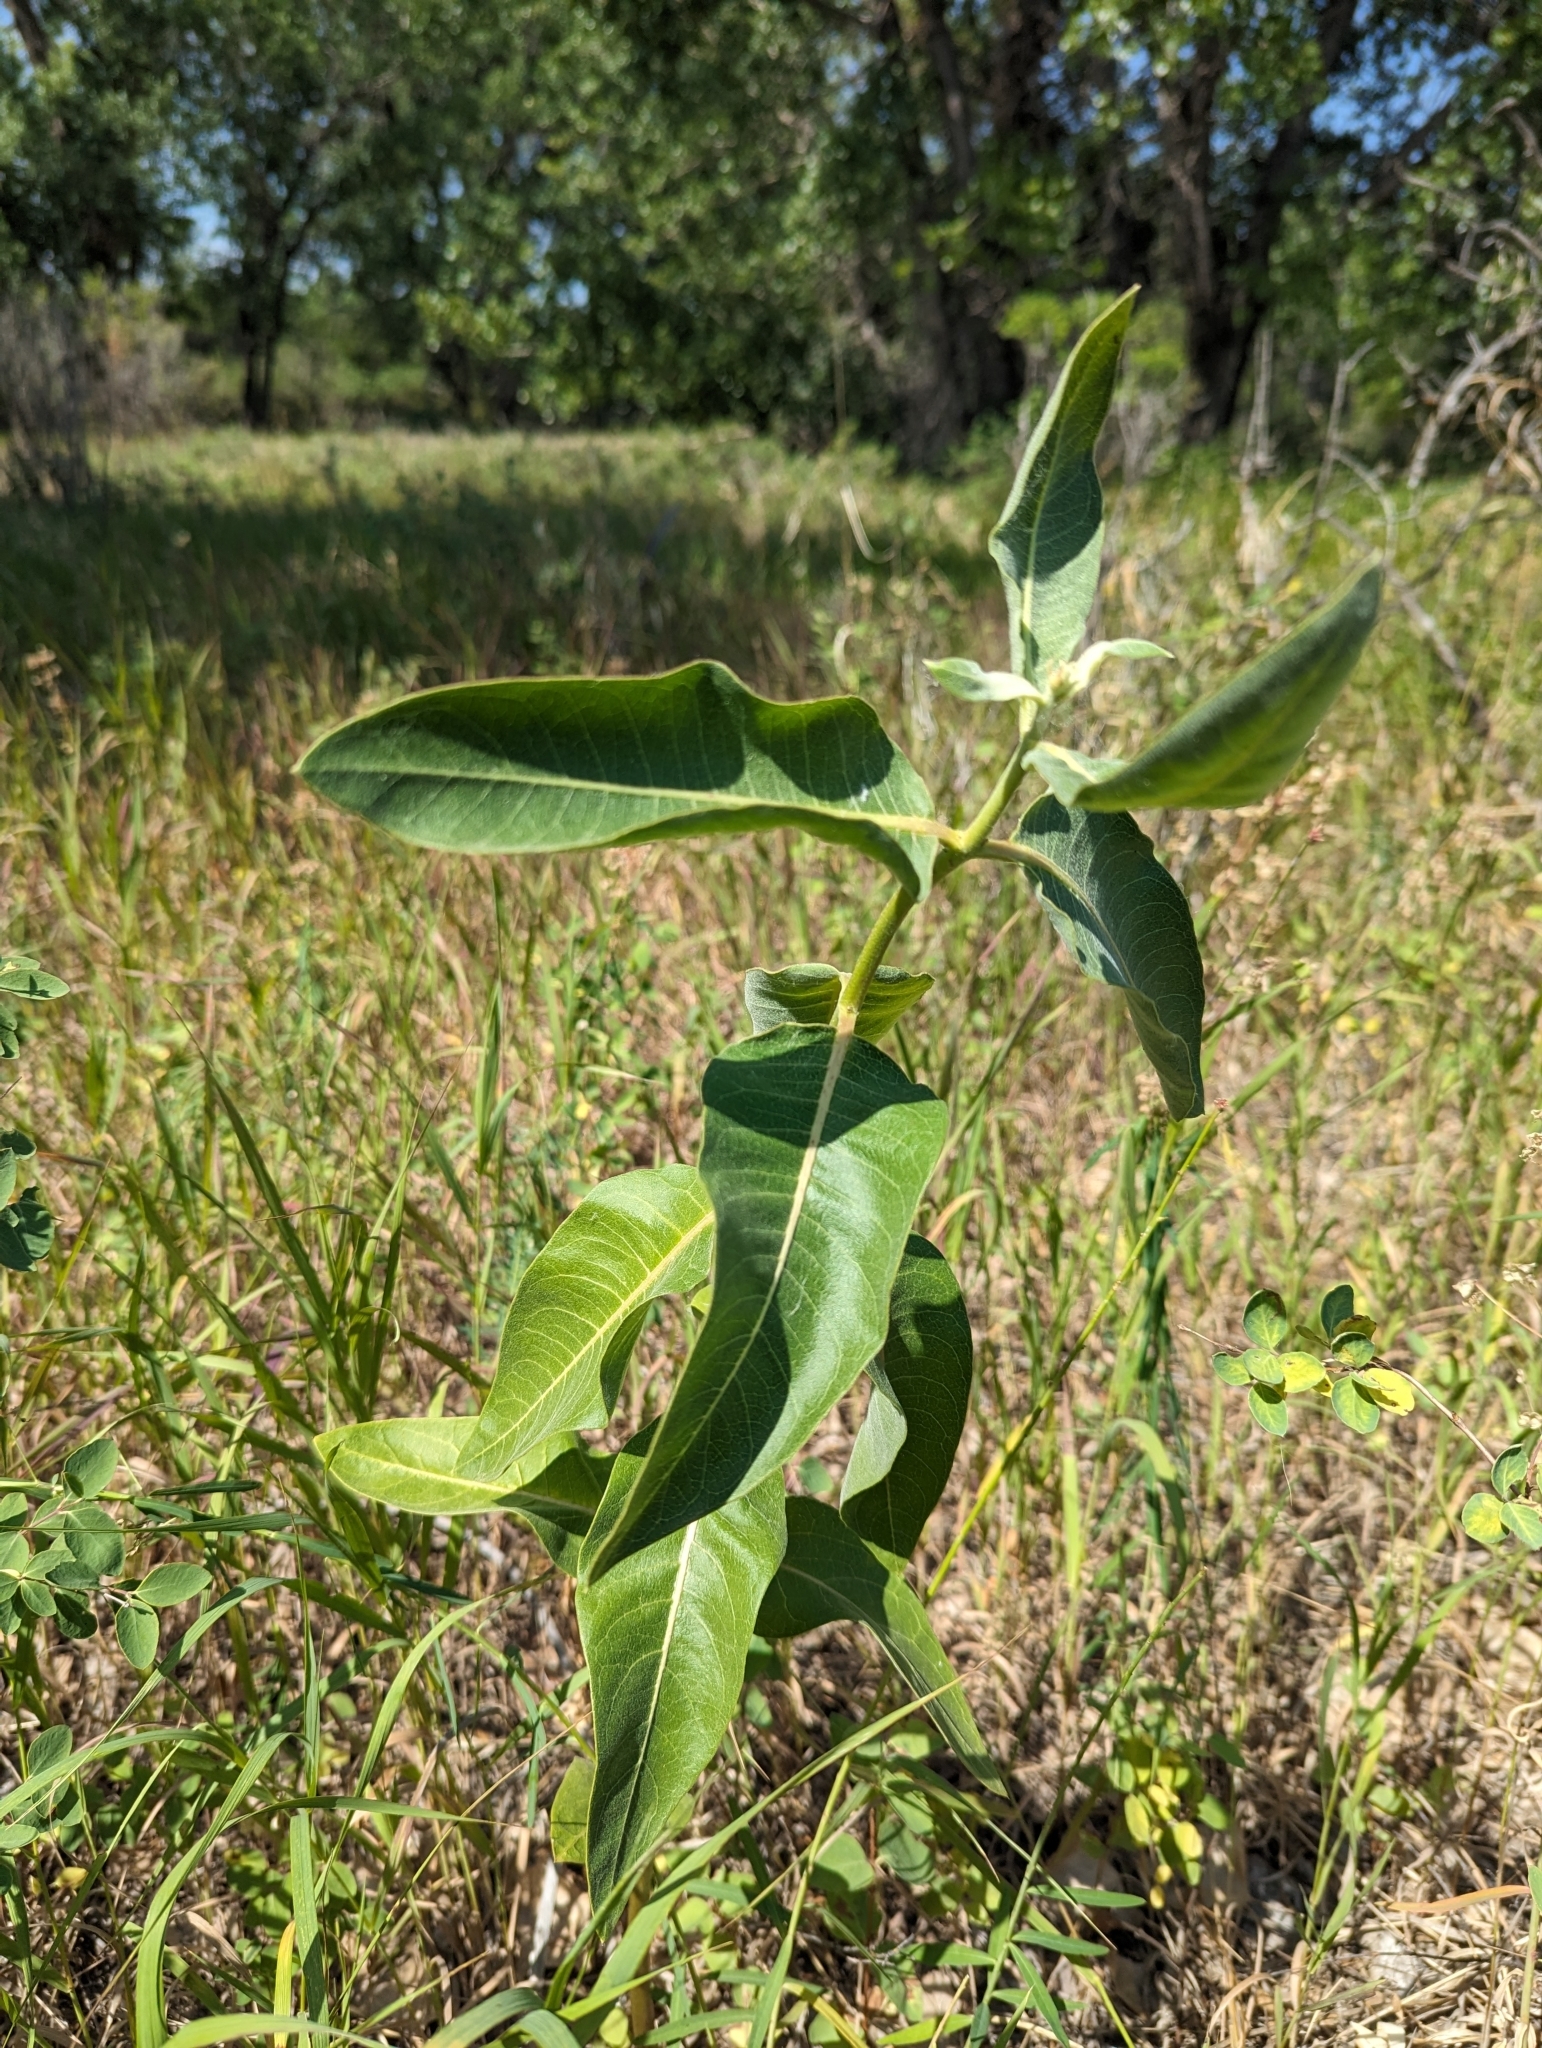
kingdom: Plantae
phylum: Tracheophyta
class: Magnoliopsida
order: Gentianales
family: Apocynaceae
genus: Asclepias
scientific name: Asclepias speciosa
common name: Showy milkweed
